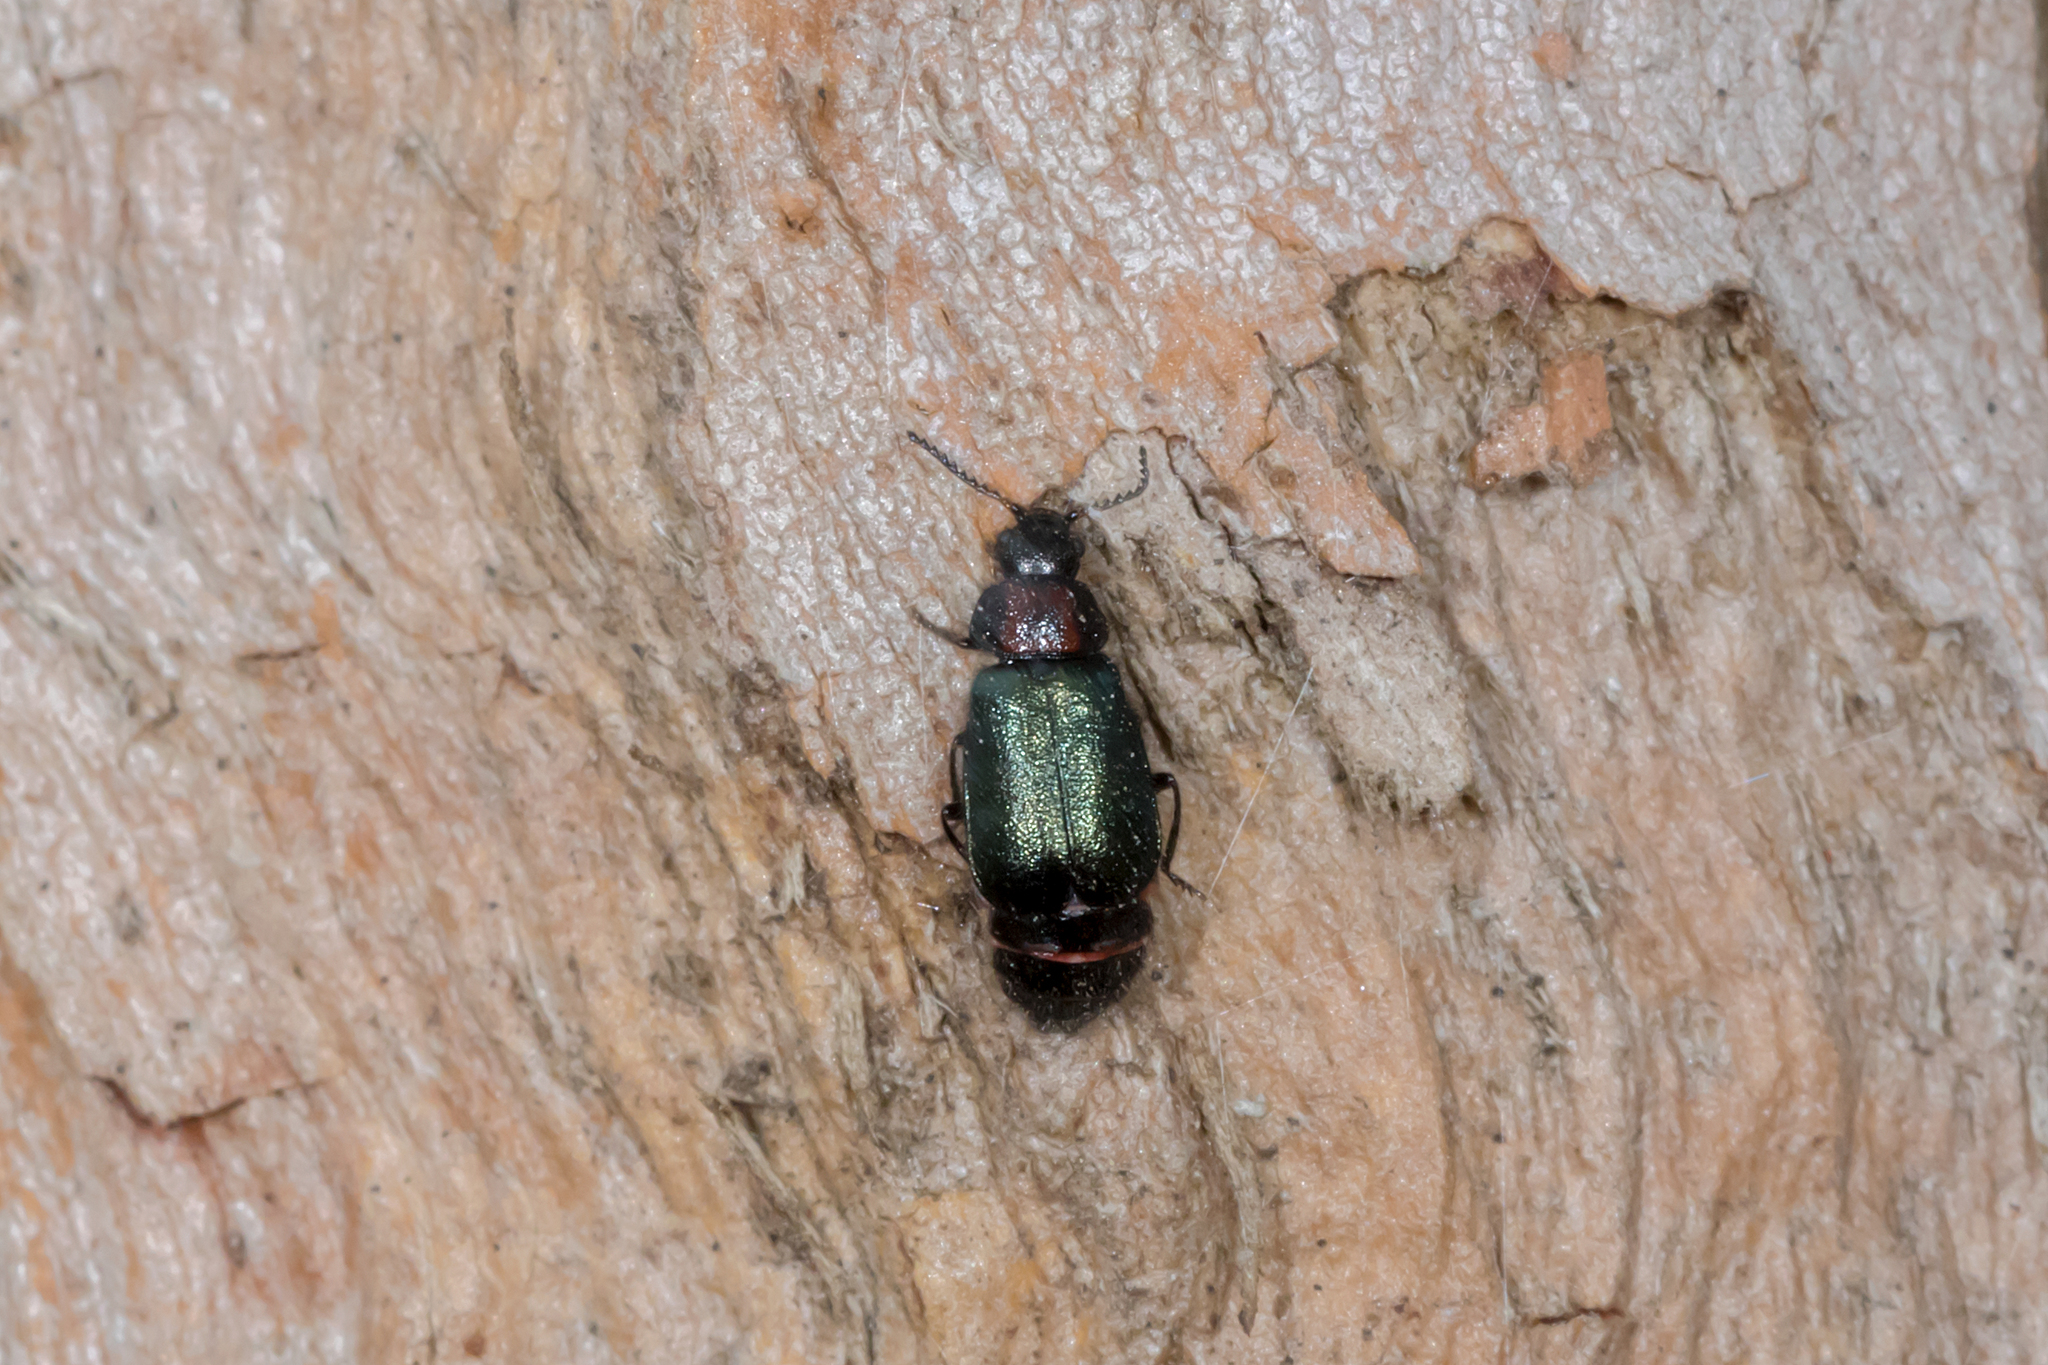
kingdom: Animalia
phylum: Arthropoda
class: Insecta
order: Coleoptera
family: Melyridae
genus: Hypattalus
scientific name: Hypattalus
